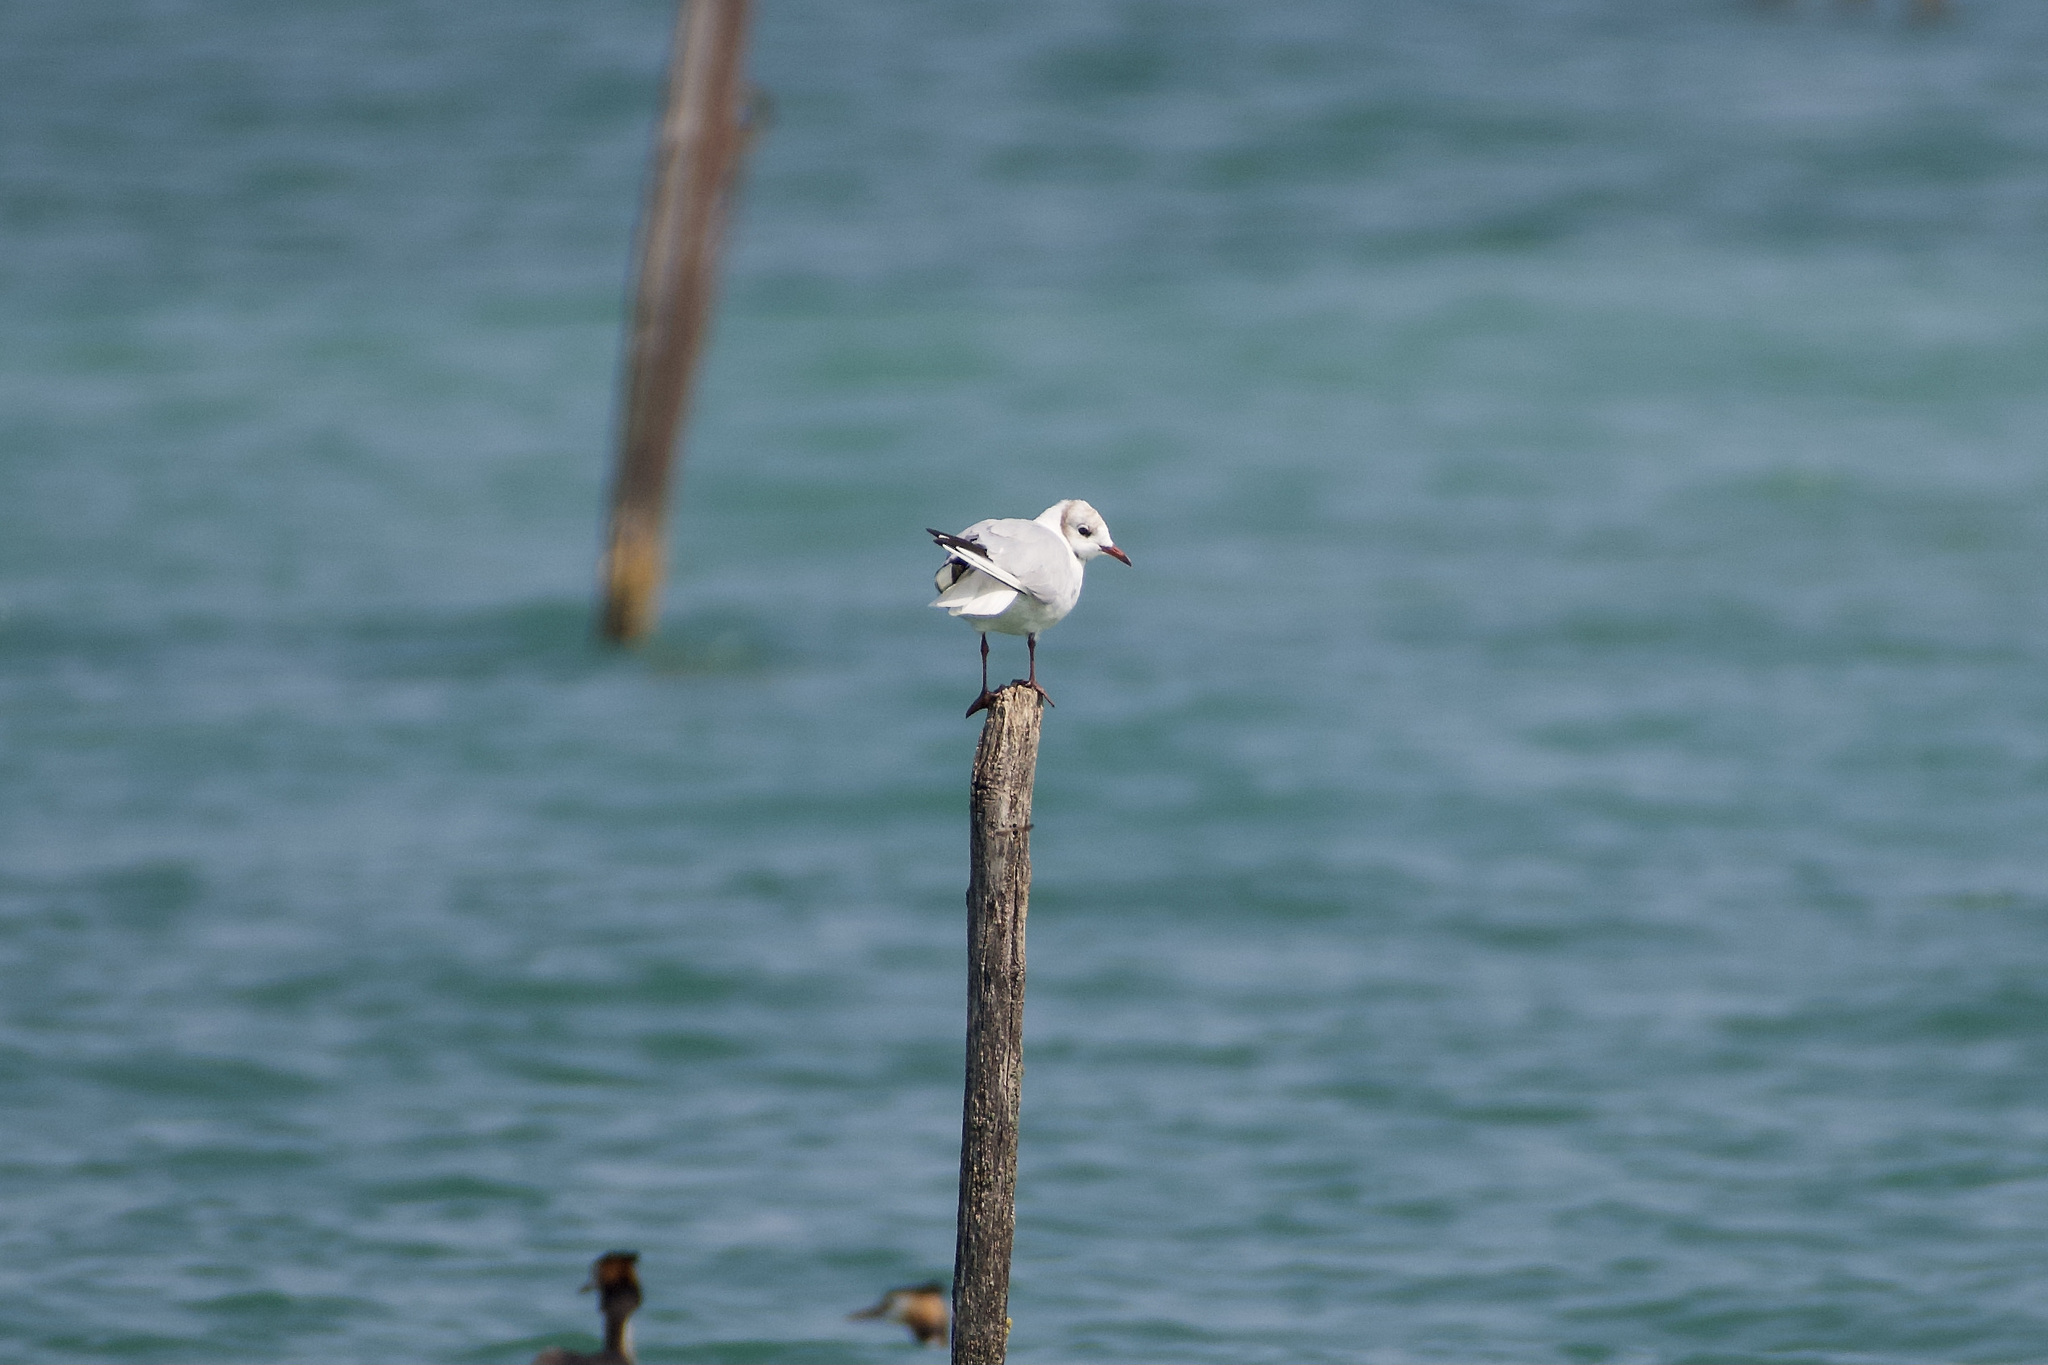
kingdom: Animalia
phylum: Chordata
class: Aves
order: Charadriiformes
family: Laridae
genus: Chroicocephalus
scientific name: Chroicocephalus ridibundus
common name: Black-headed gull
